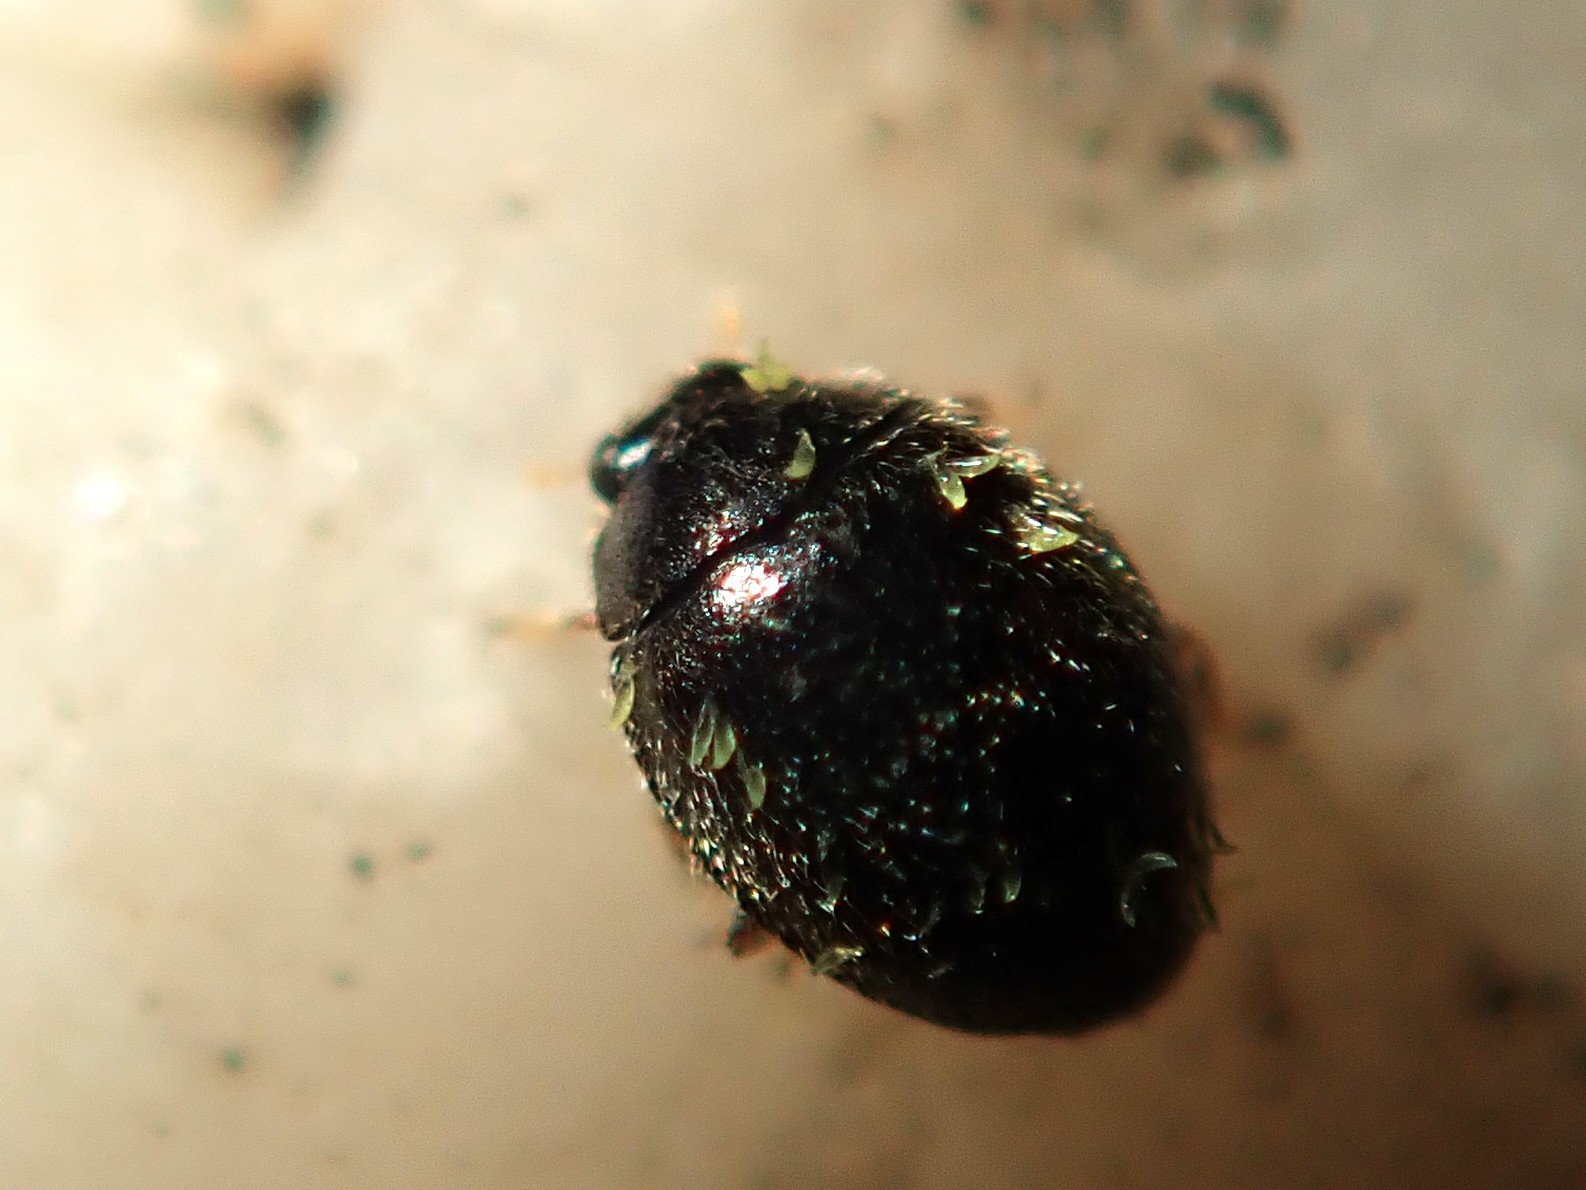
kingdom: Animalia
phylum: Arthropoda
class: Insecta
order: Coleoptera
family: Coccinellidae
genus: Stethorus
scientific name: Stethorus pusillus
